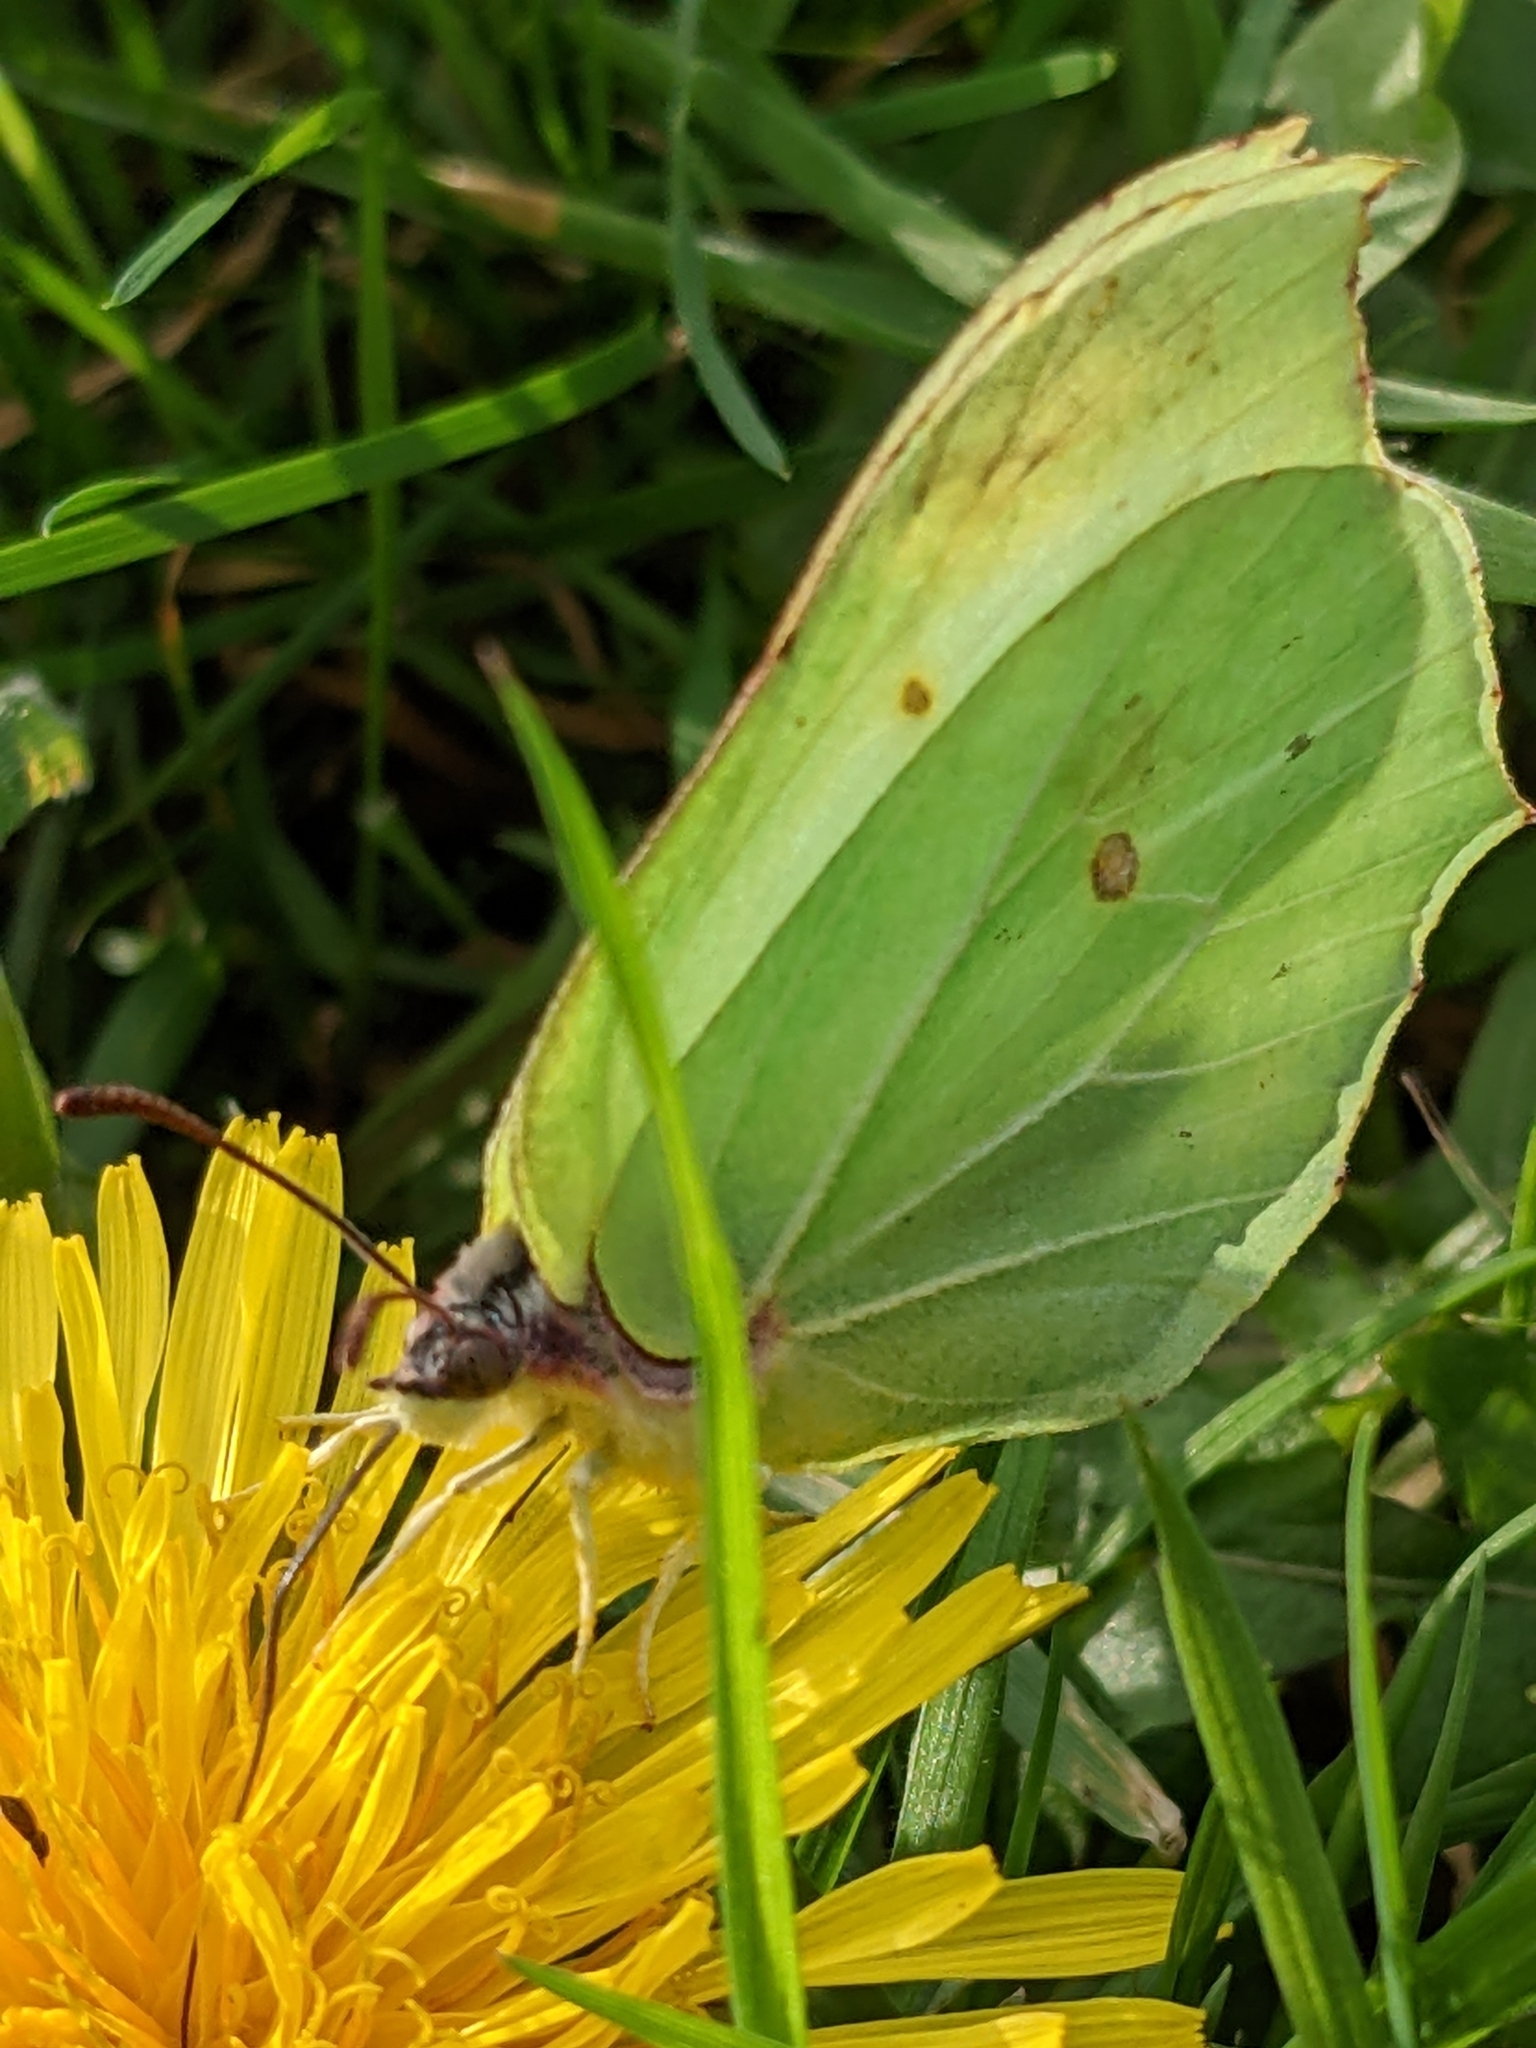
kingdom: Animalia
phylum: Arthropoda
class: Insecta
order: Lepidoptera
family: Pieridae
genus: Gonepteryx
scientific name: Gonepteryx rhamni
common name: Brimstone
